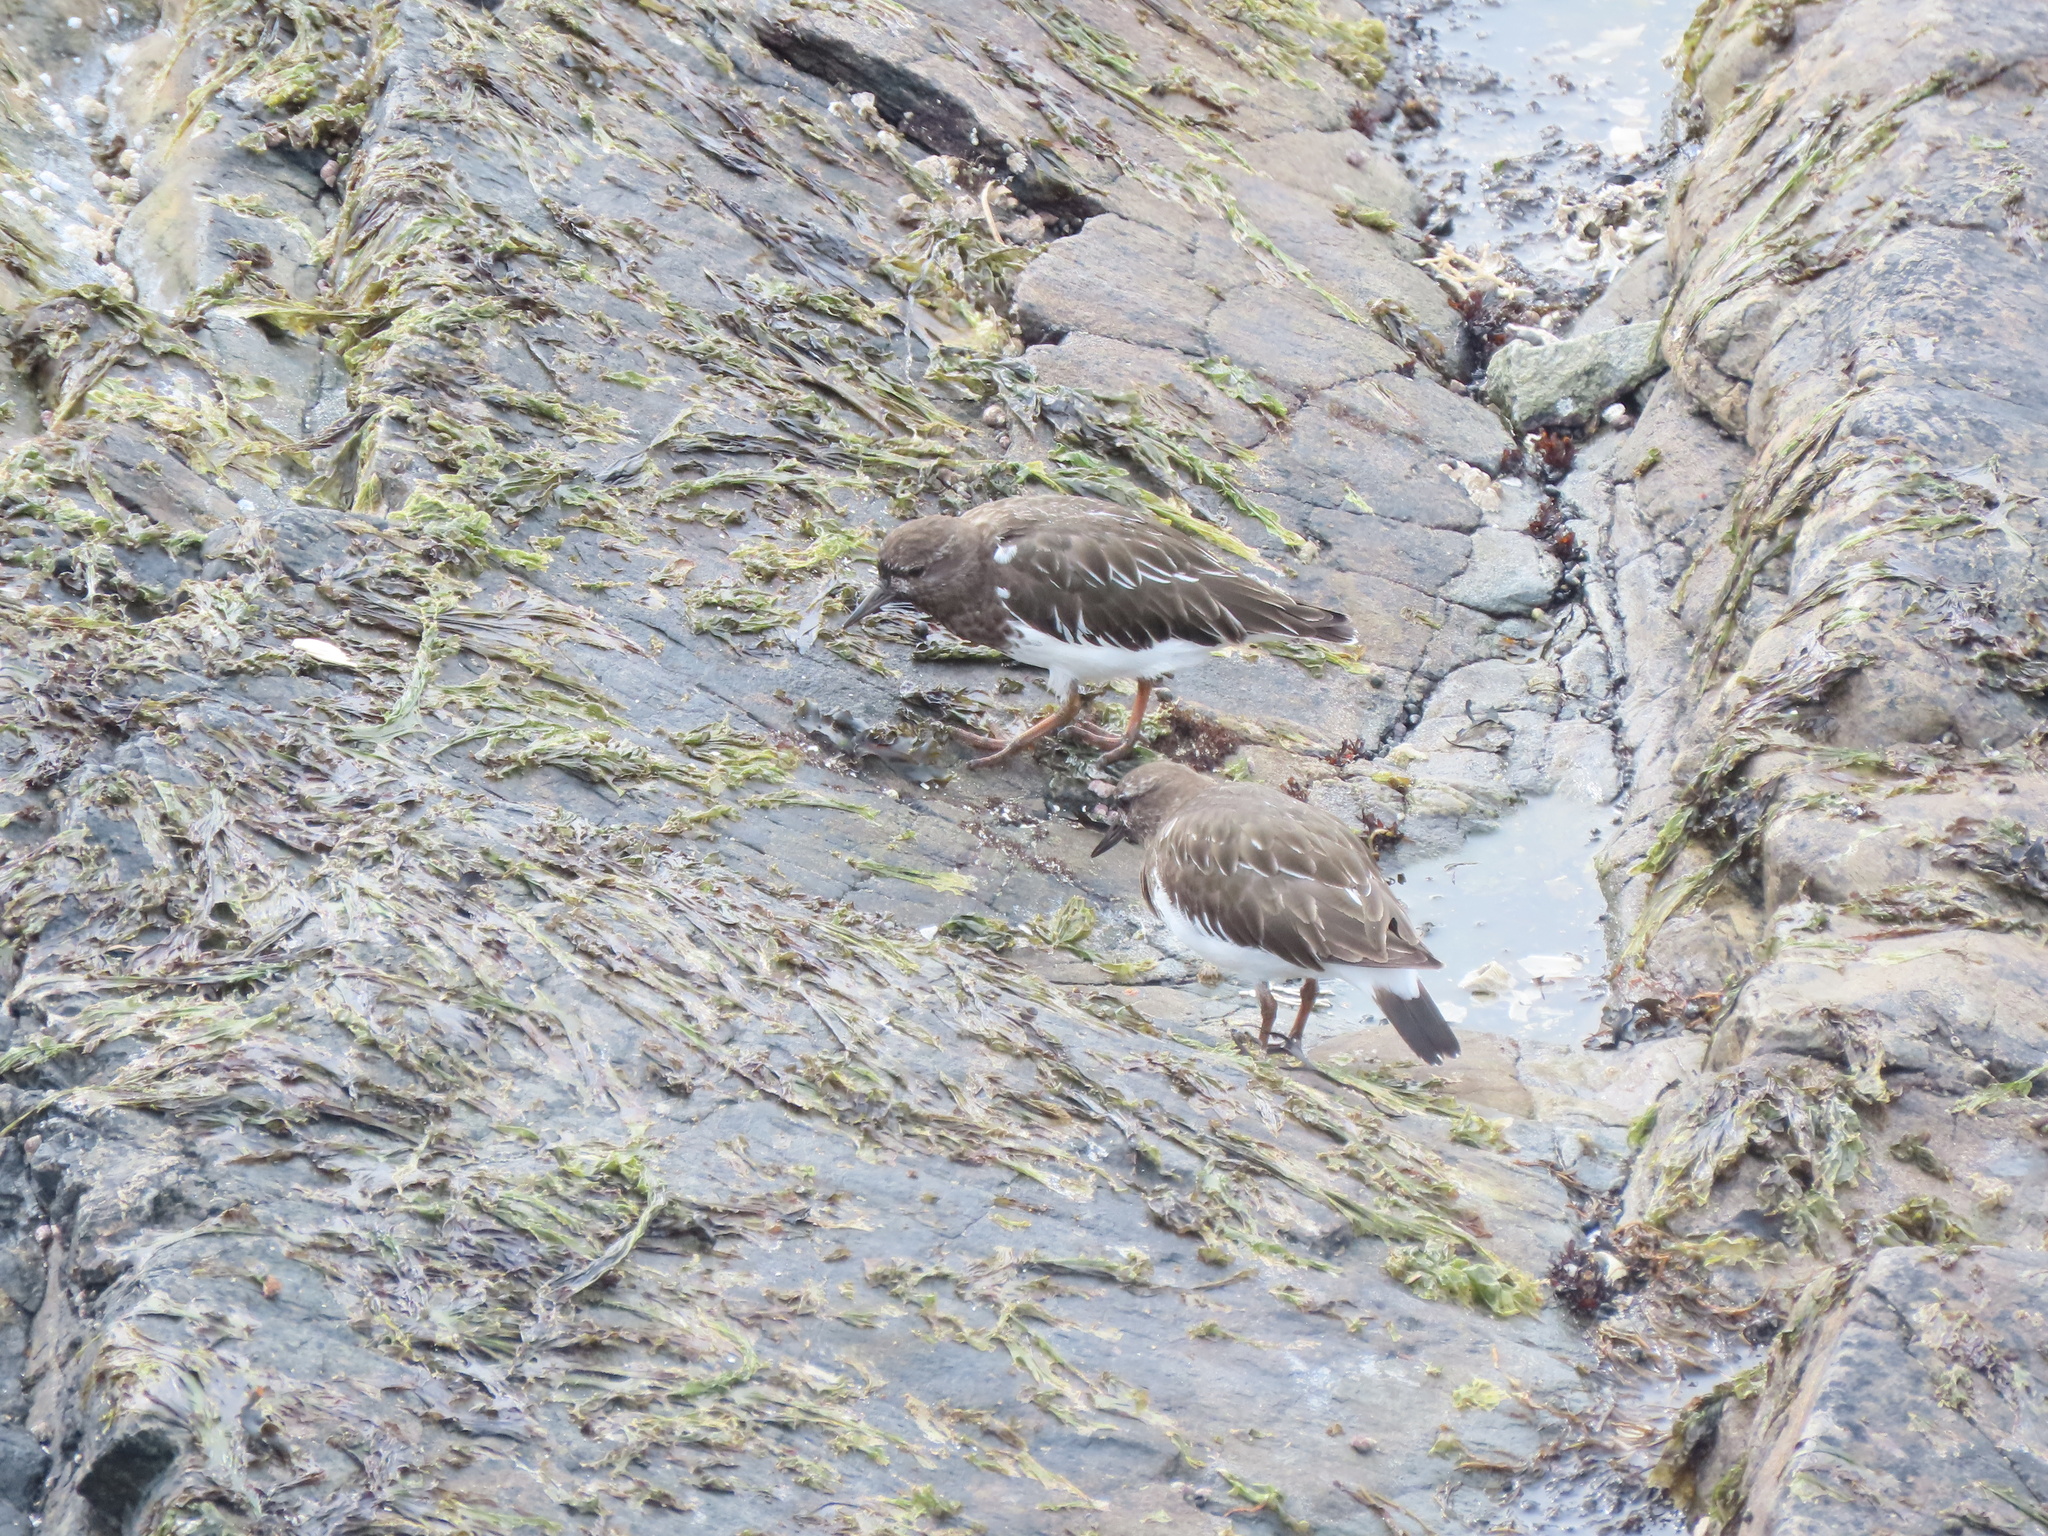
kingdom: Animalia
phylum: Chordata
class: Aves
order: Charadriiformes
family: Scolopacidae
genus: Arenaria
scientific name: Arenaria melanocephala
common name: Black turnstone
